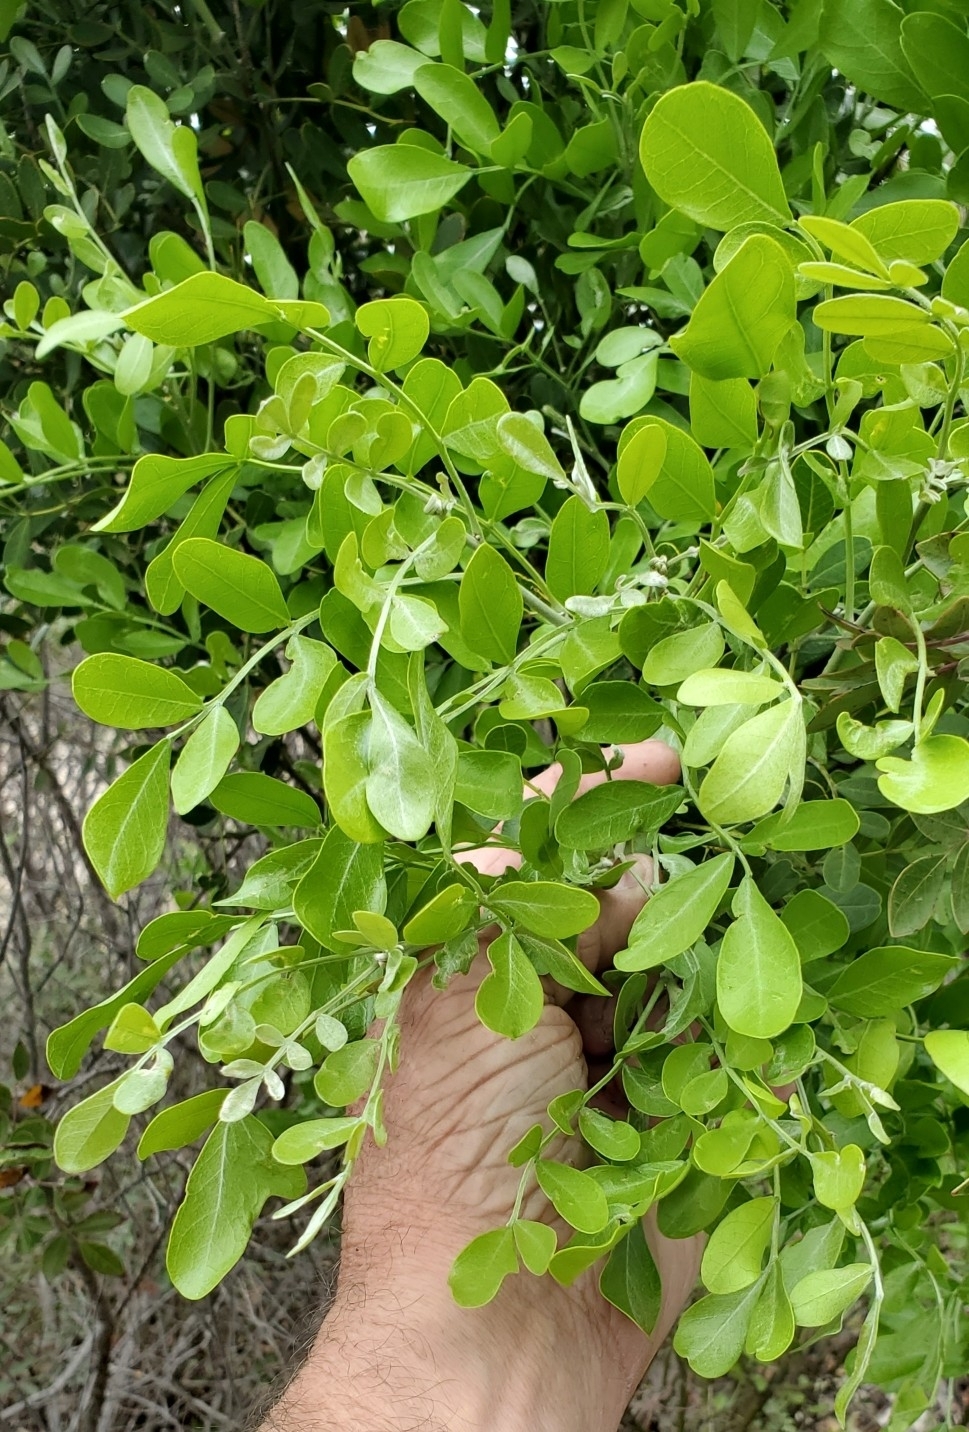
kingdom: Plantae
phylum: Tracheophyta
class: Magnoliopsida
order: Fabales
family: Fabaceae
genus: Dermatophyllum
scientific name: Dermatophyllum secundiflorum
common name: Texas-mountain-laurel
